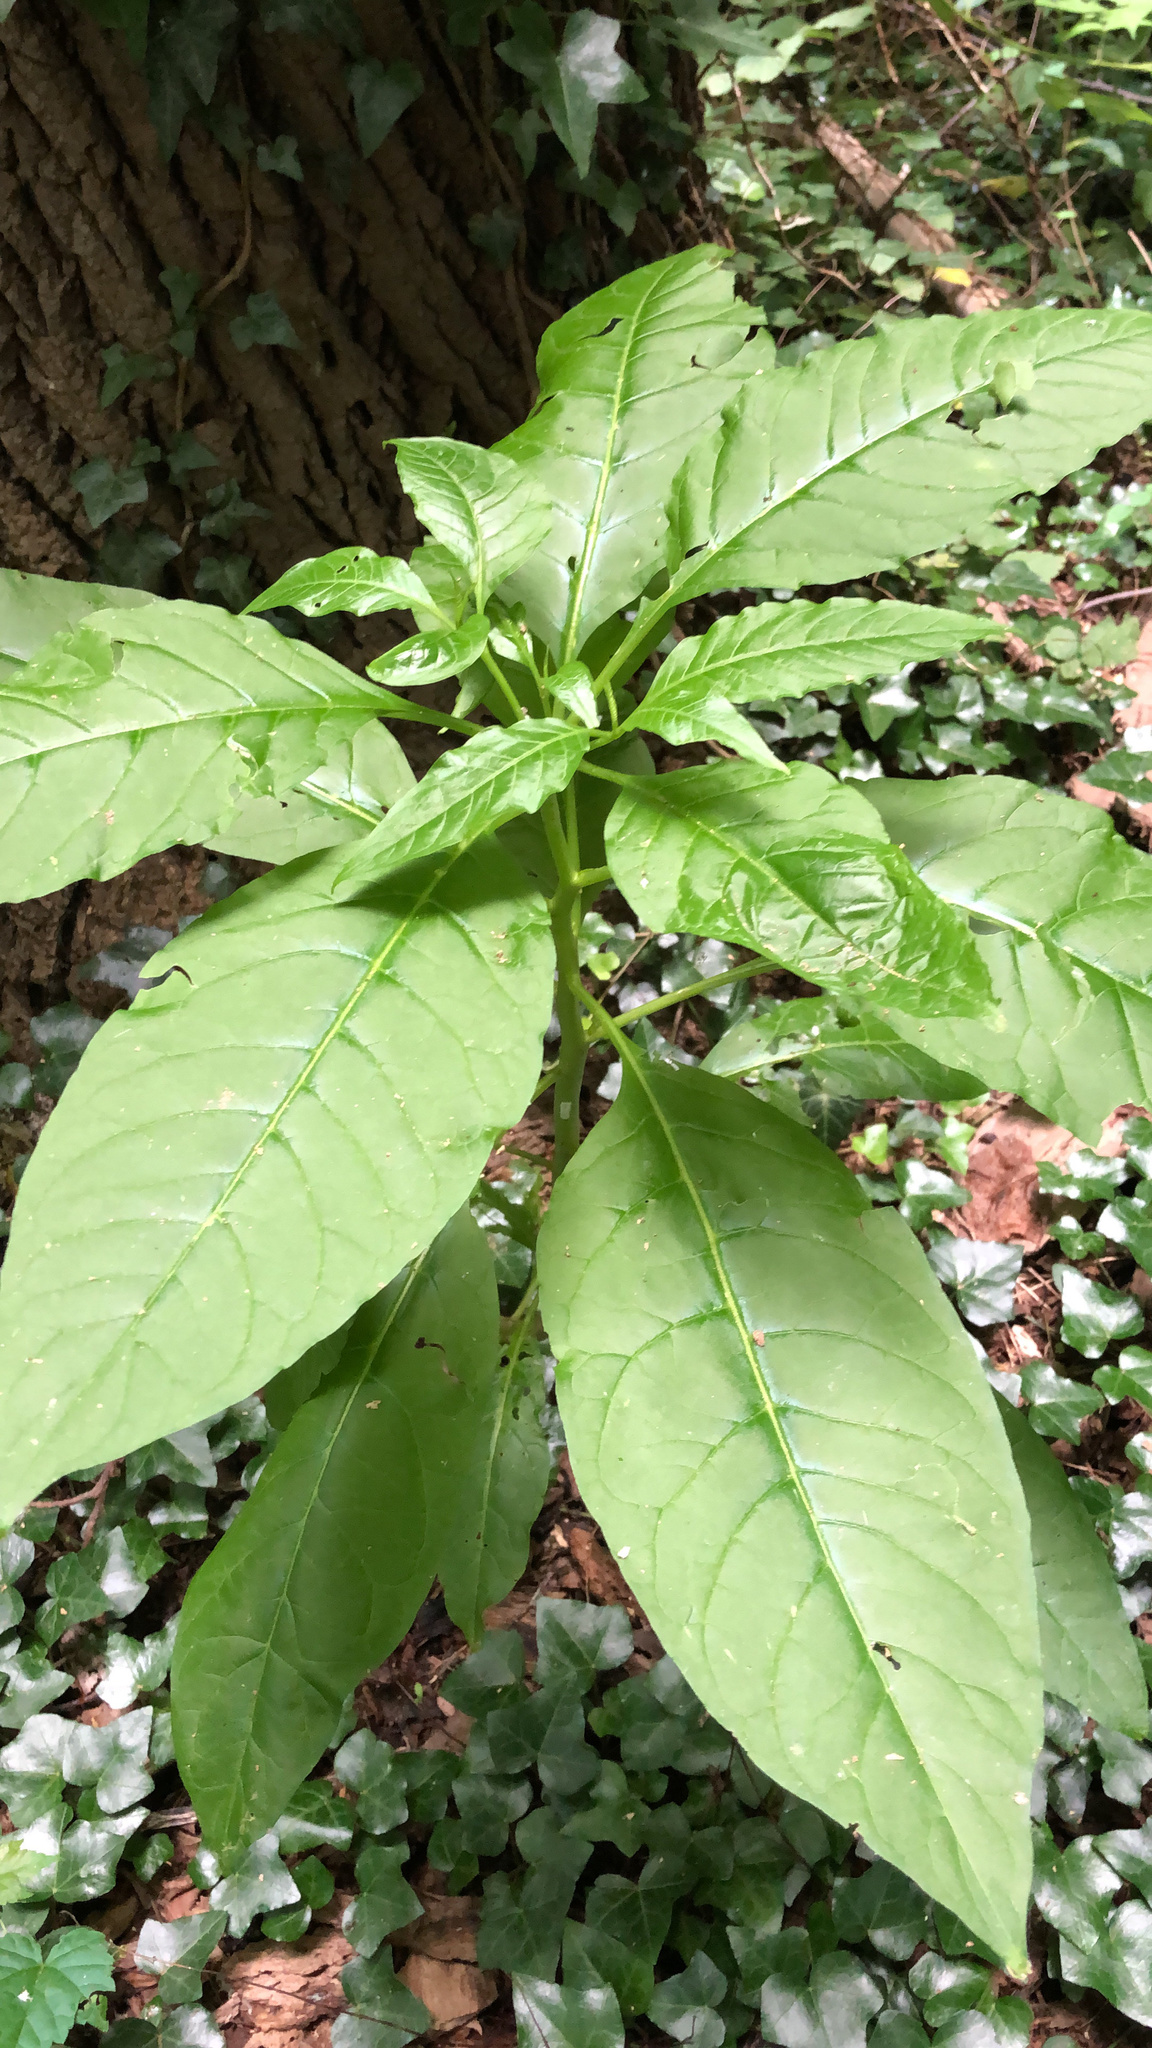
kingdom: Plantae
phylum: Tracheophyta
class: Magnoliopsida
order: Caryophyllales
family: Phytolaccaceae
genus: Phytolacca
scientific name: Phytolacca americana
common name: American pokeweed
